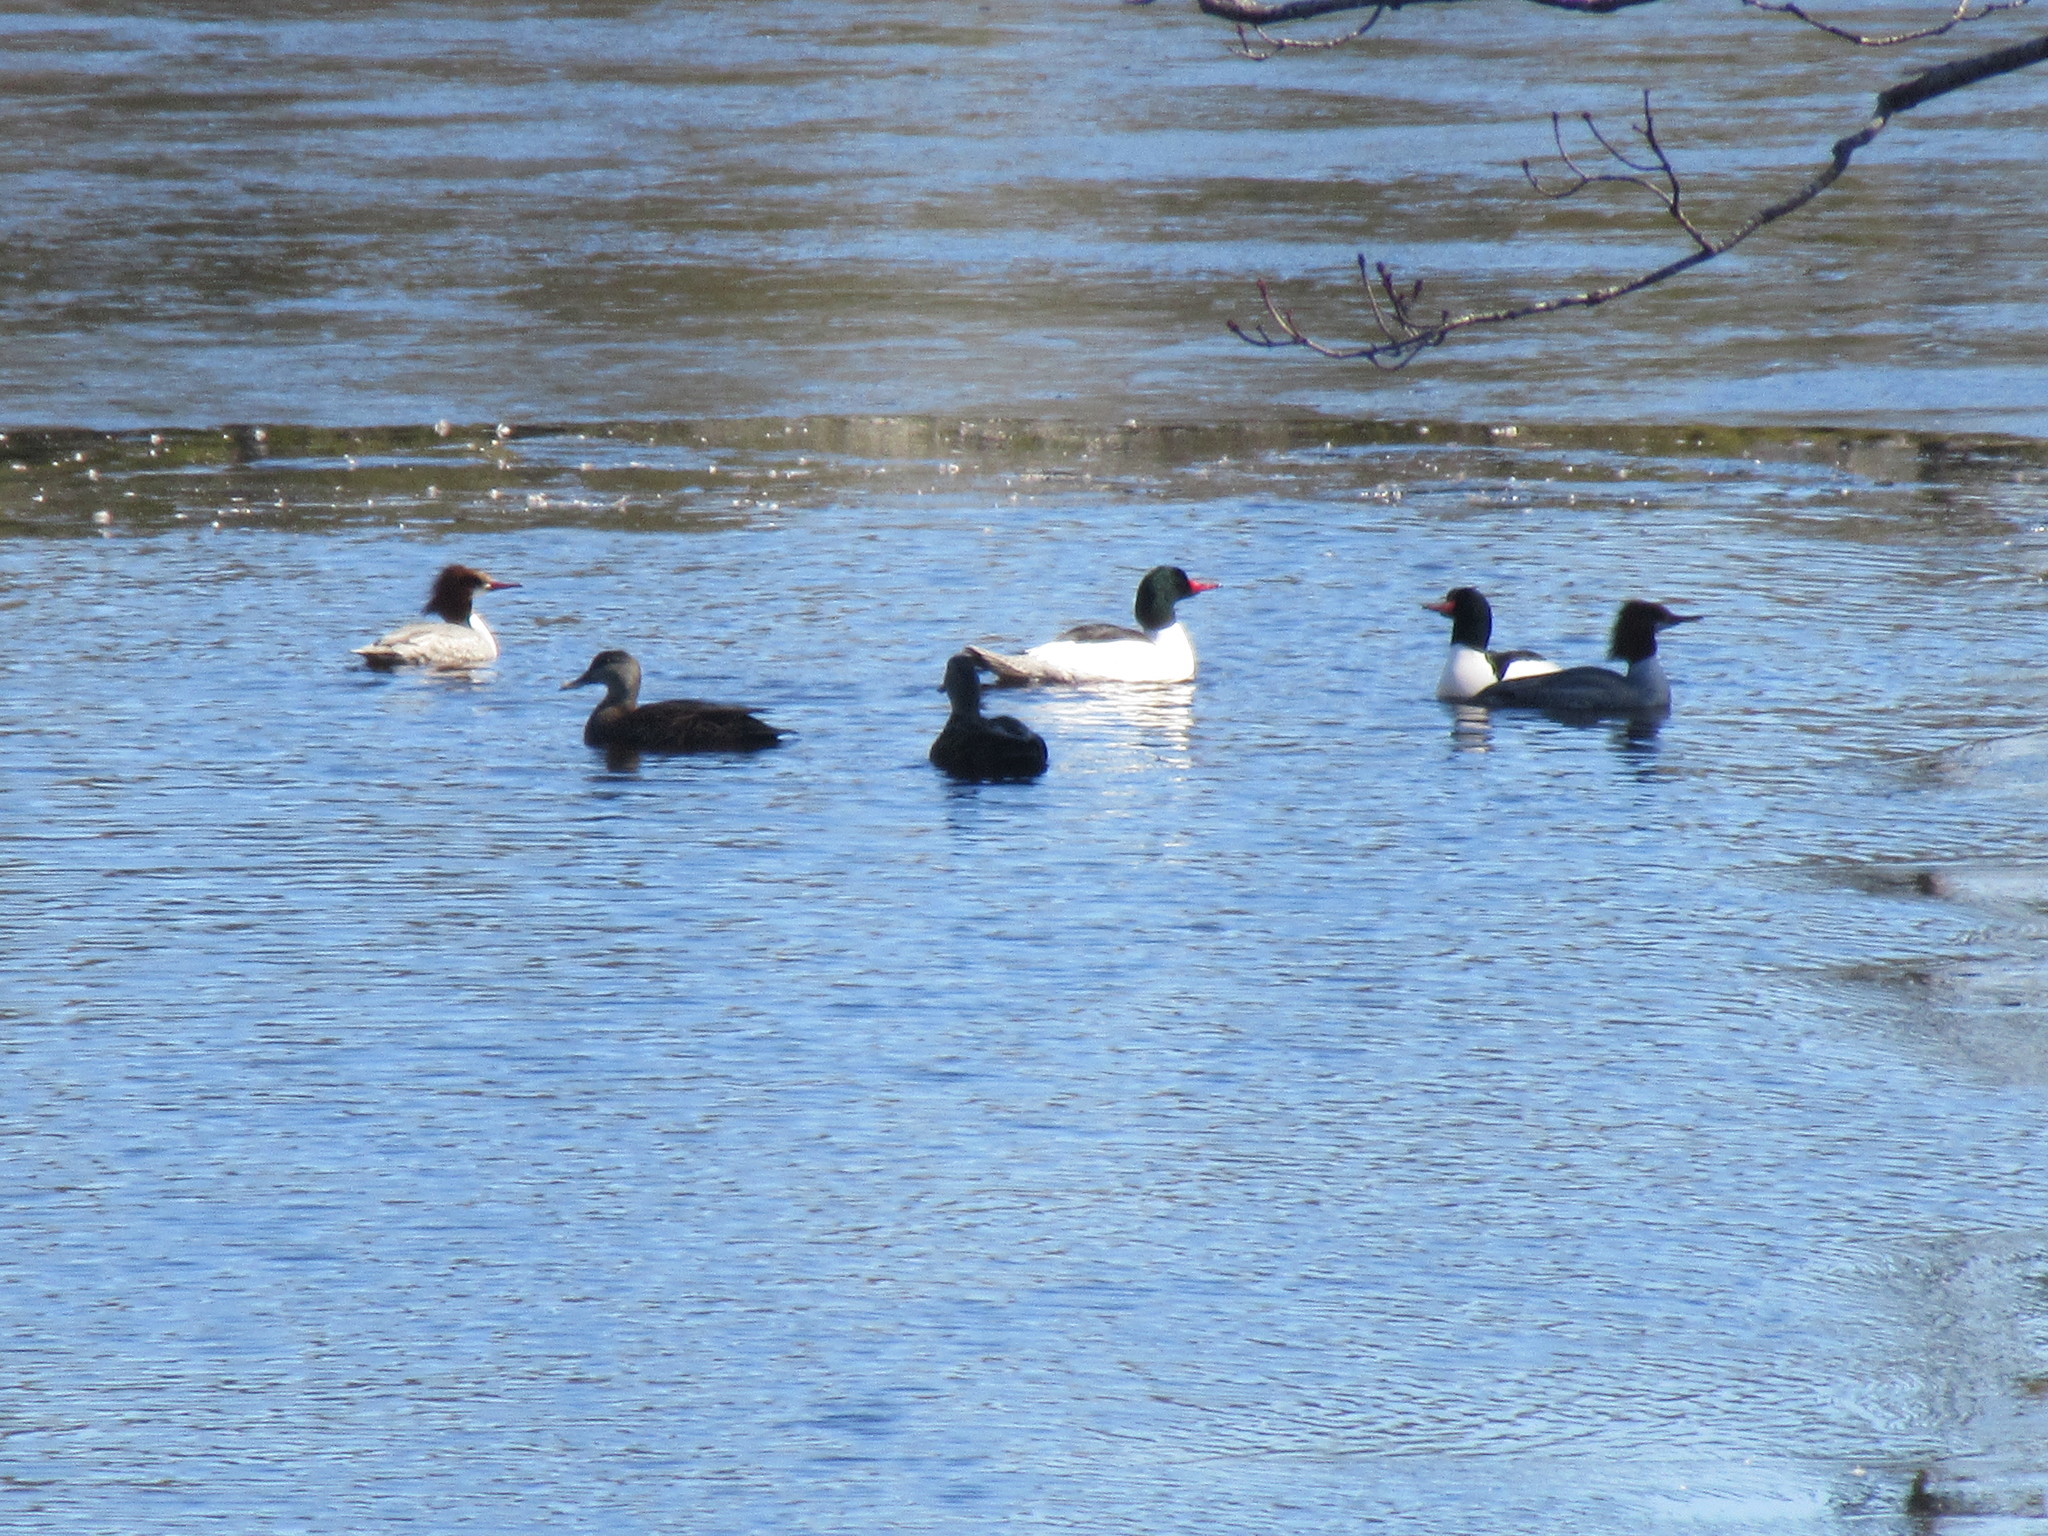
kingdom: Animalia
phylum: Chordata
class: Aves
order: Anseriformes
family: Anatidae
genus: Mergus
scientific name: Mergus merganser
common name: Common merganser
